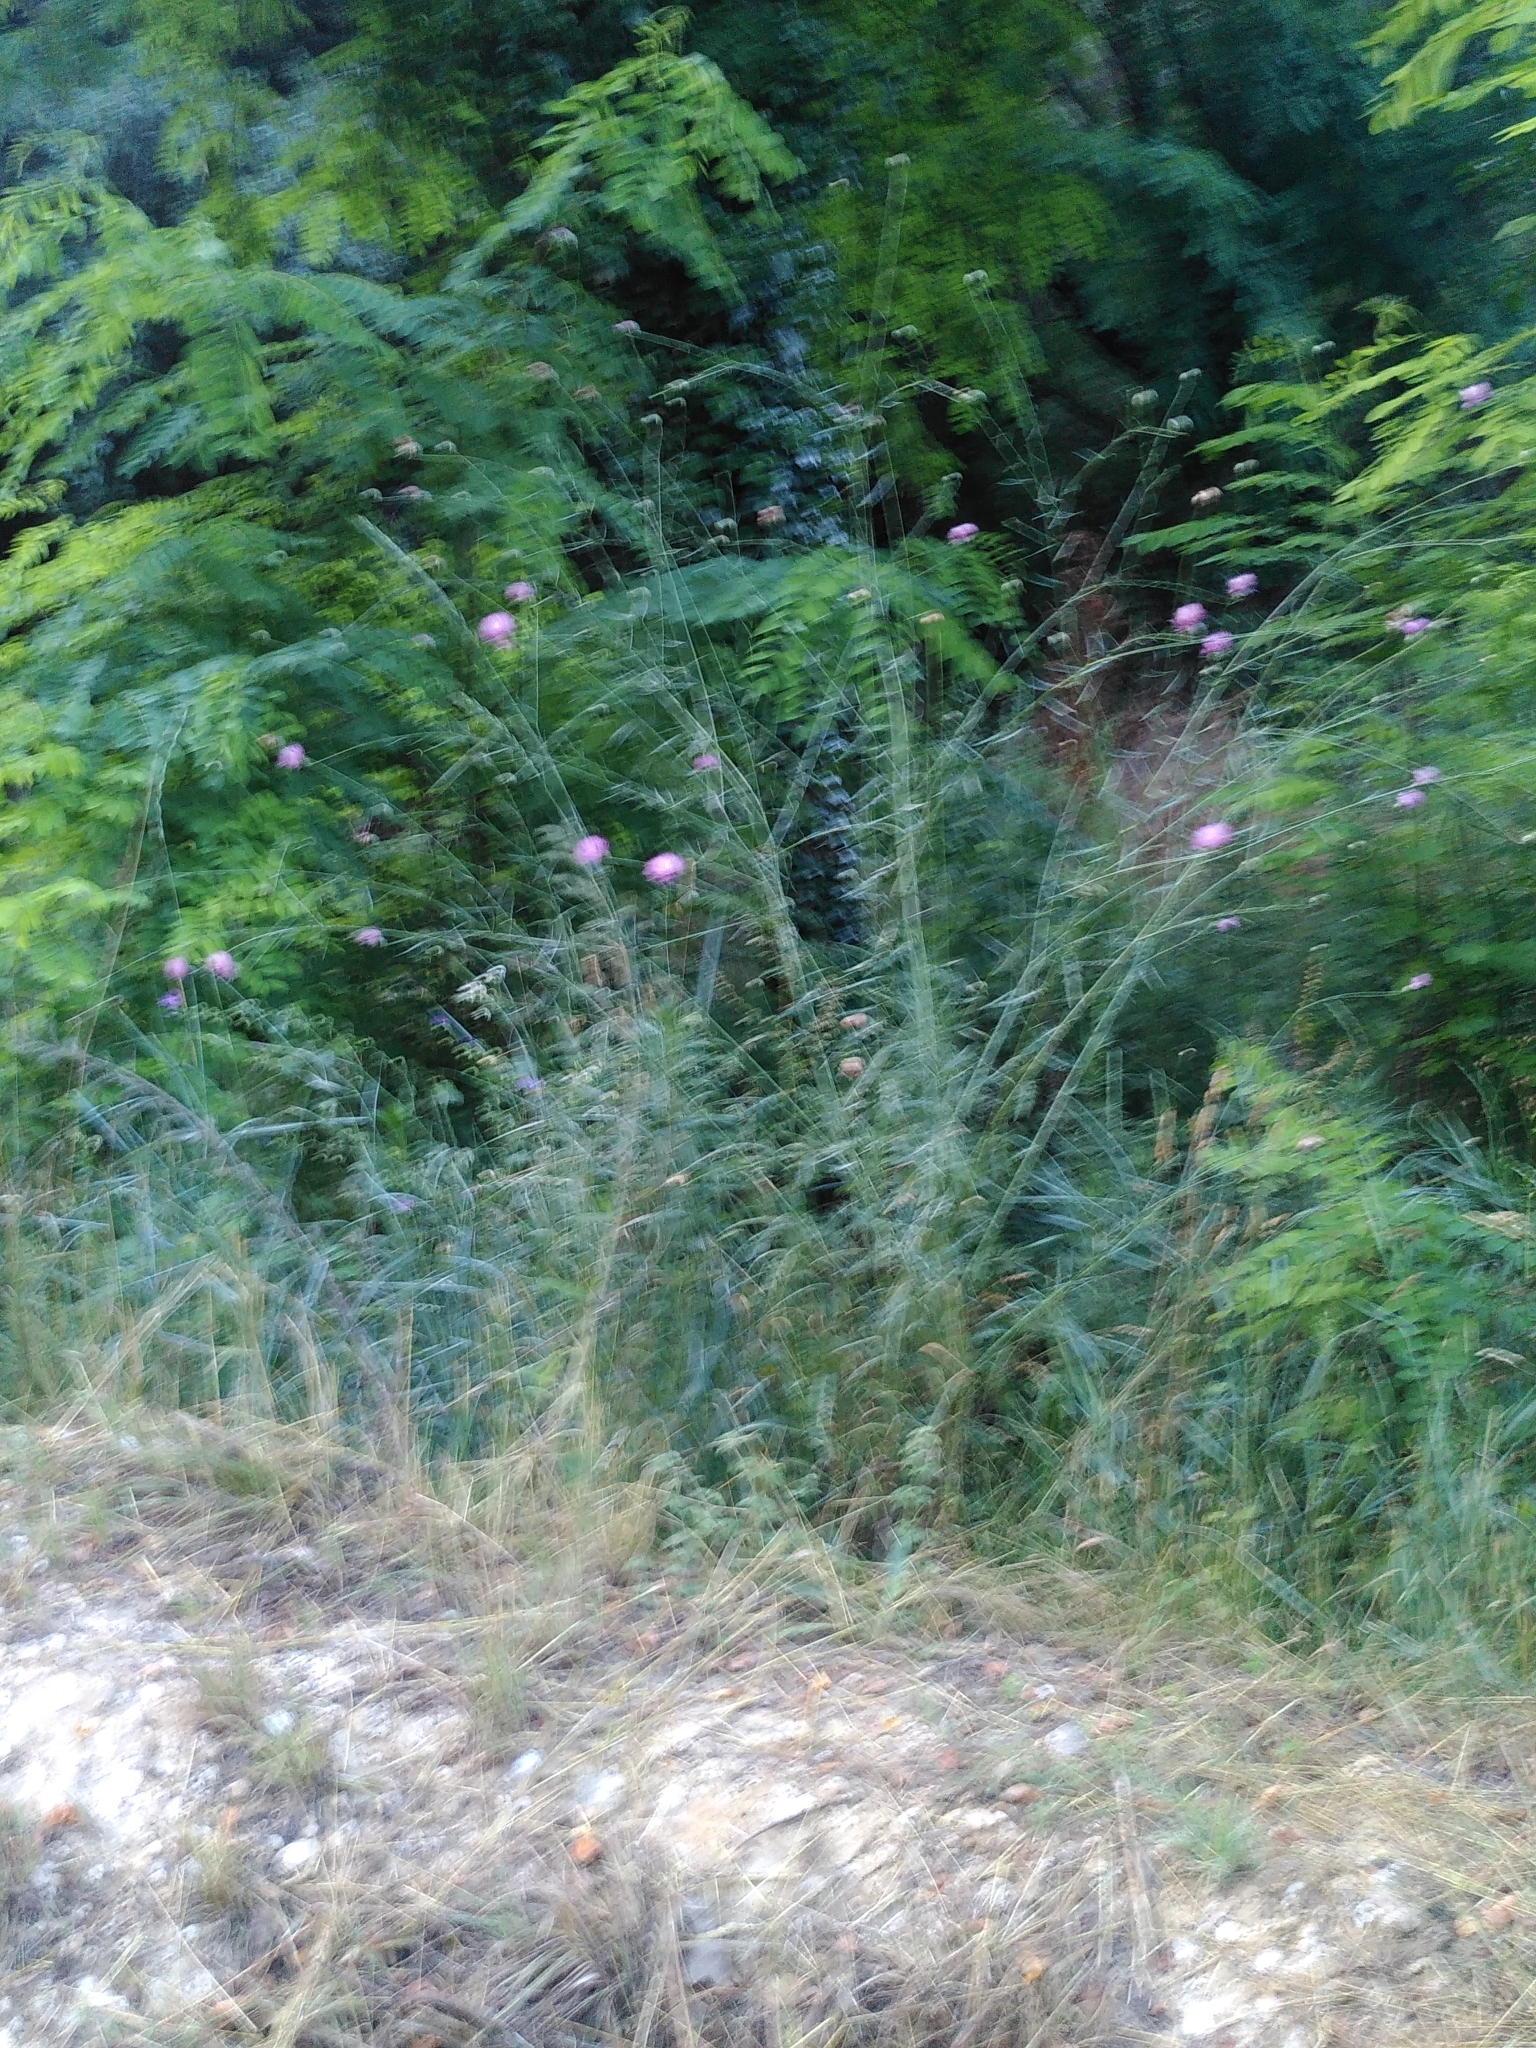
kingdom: Plantae
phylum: Tracheophyta
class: Magnoliopsida
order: Asterales
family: Asteraceae
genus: Mantisalca
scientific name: Mantisalca salmantica
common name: Dagger flower
